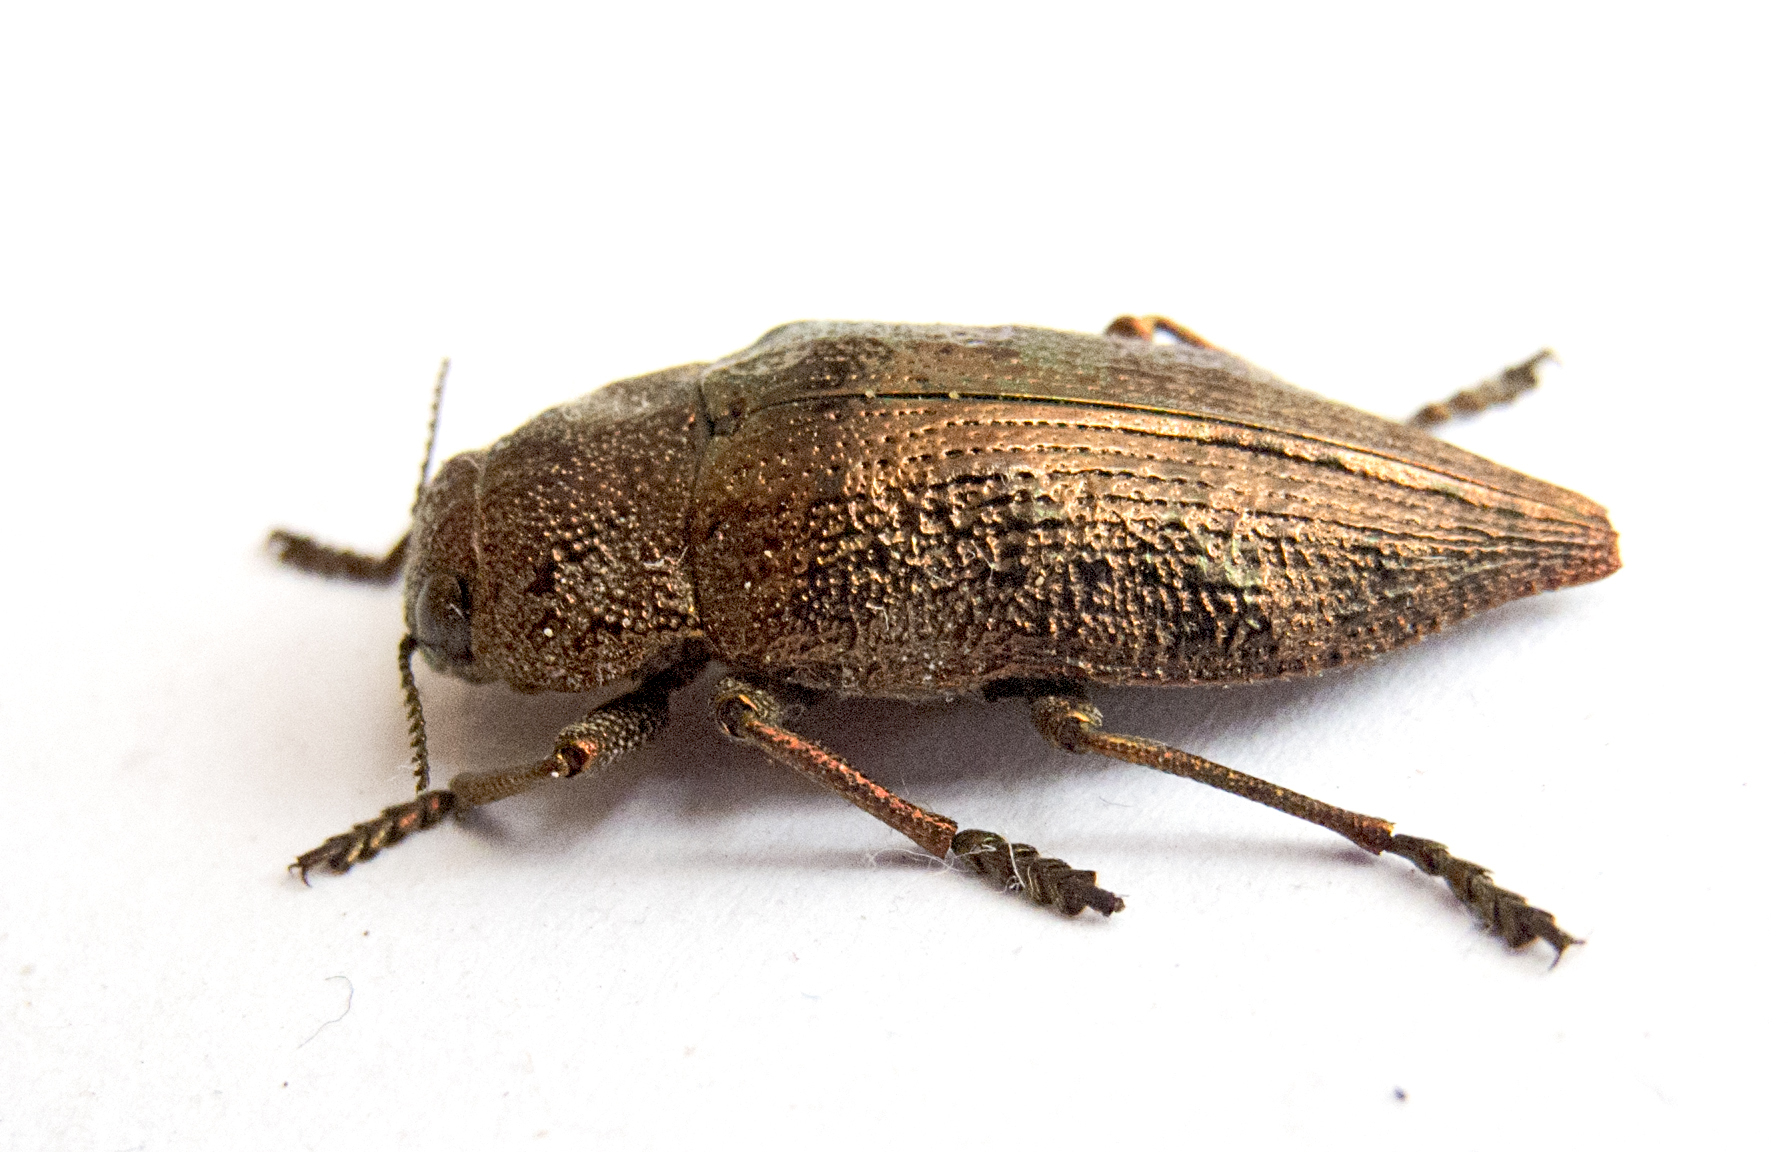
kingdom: Animalia
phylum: Arthropoda
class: Insecta
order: Coleoptera
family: Buprestidae
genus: Dicerca
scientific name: Dicerca aenea
